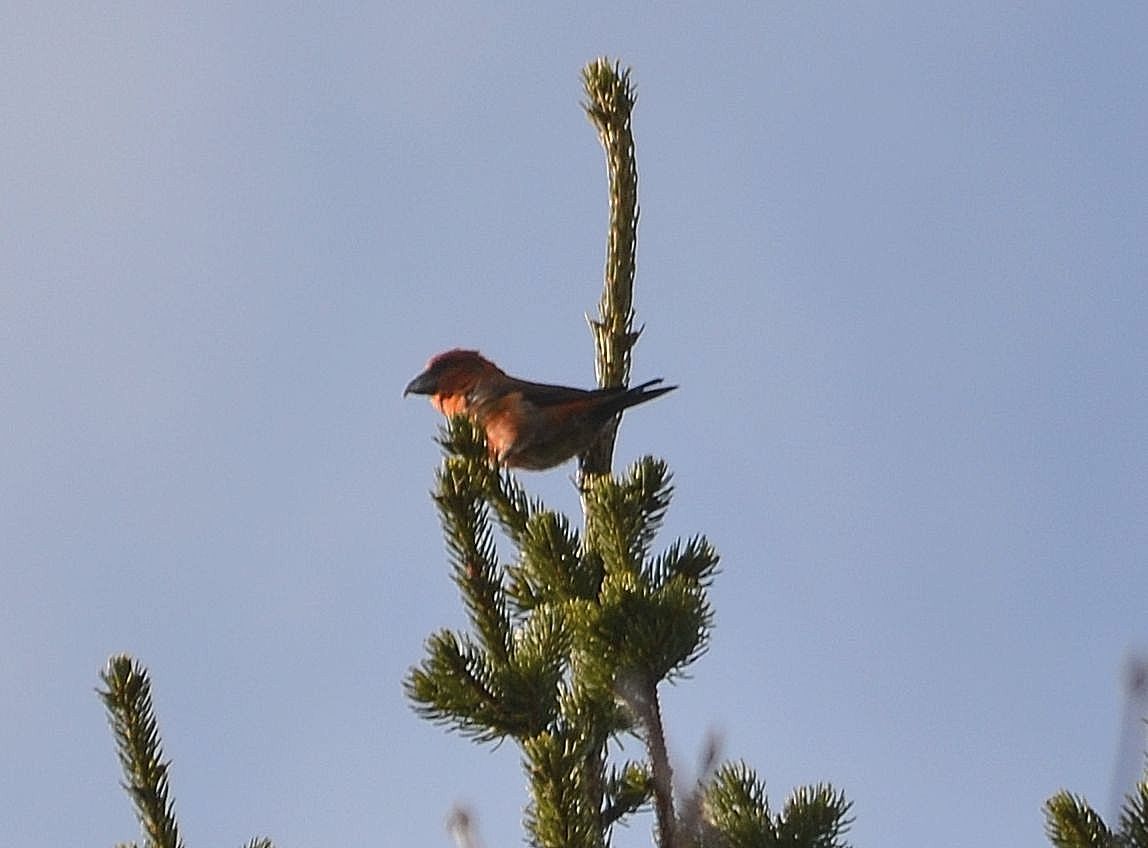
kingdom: Animalia
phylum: Chordata
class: Aves
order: Passeriformes
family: Fringillidae
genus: Loxia
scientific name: Loxia curvirostra
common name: Red crossbill
